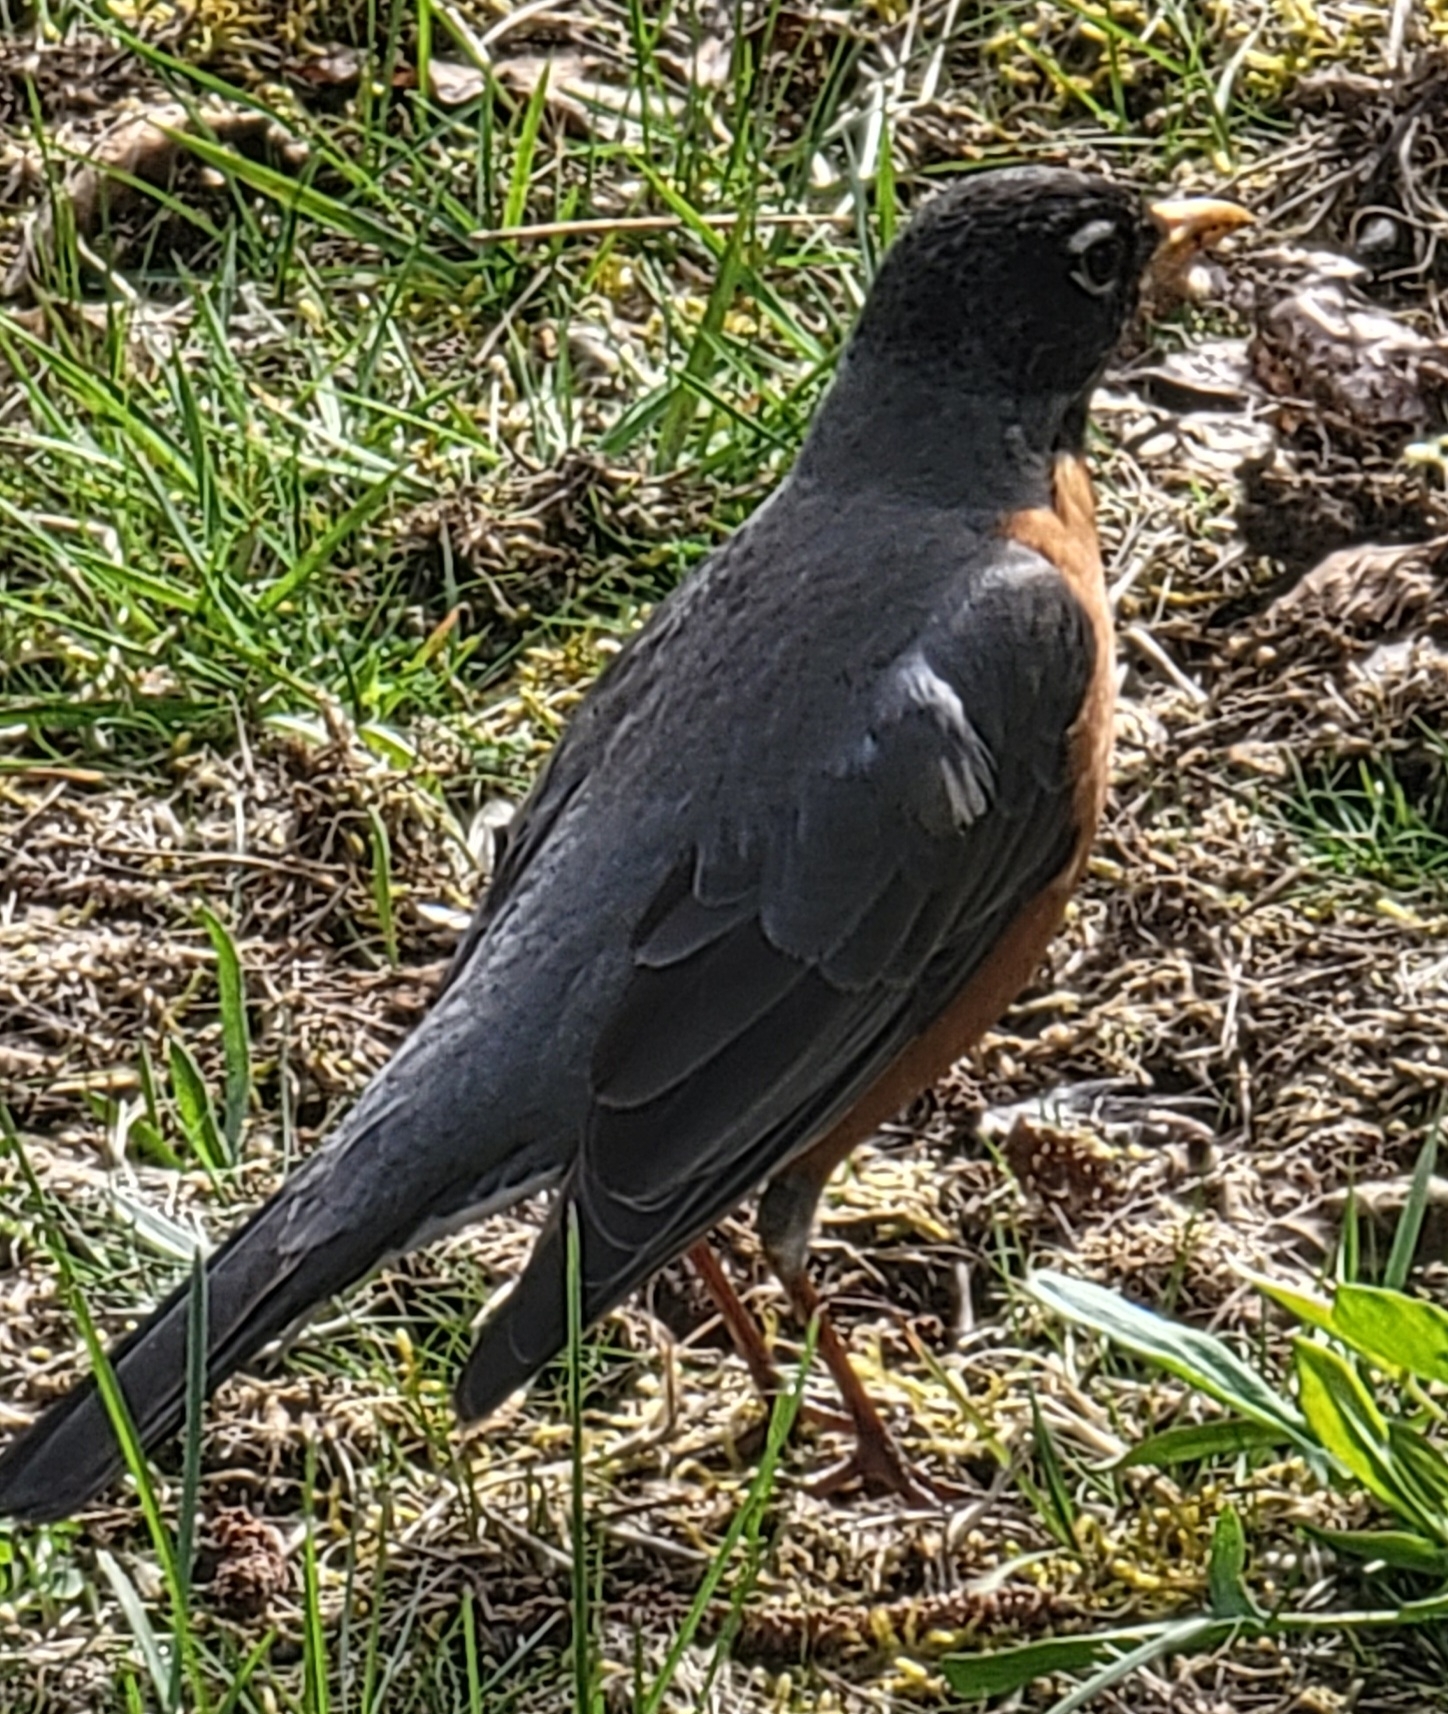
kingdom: Animalia
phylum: Chordata
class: Aves
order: Passeriformes
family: Turdidae
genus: Turdus
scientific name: Turdus migratorius
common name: American robin
